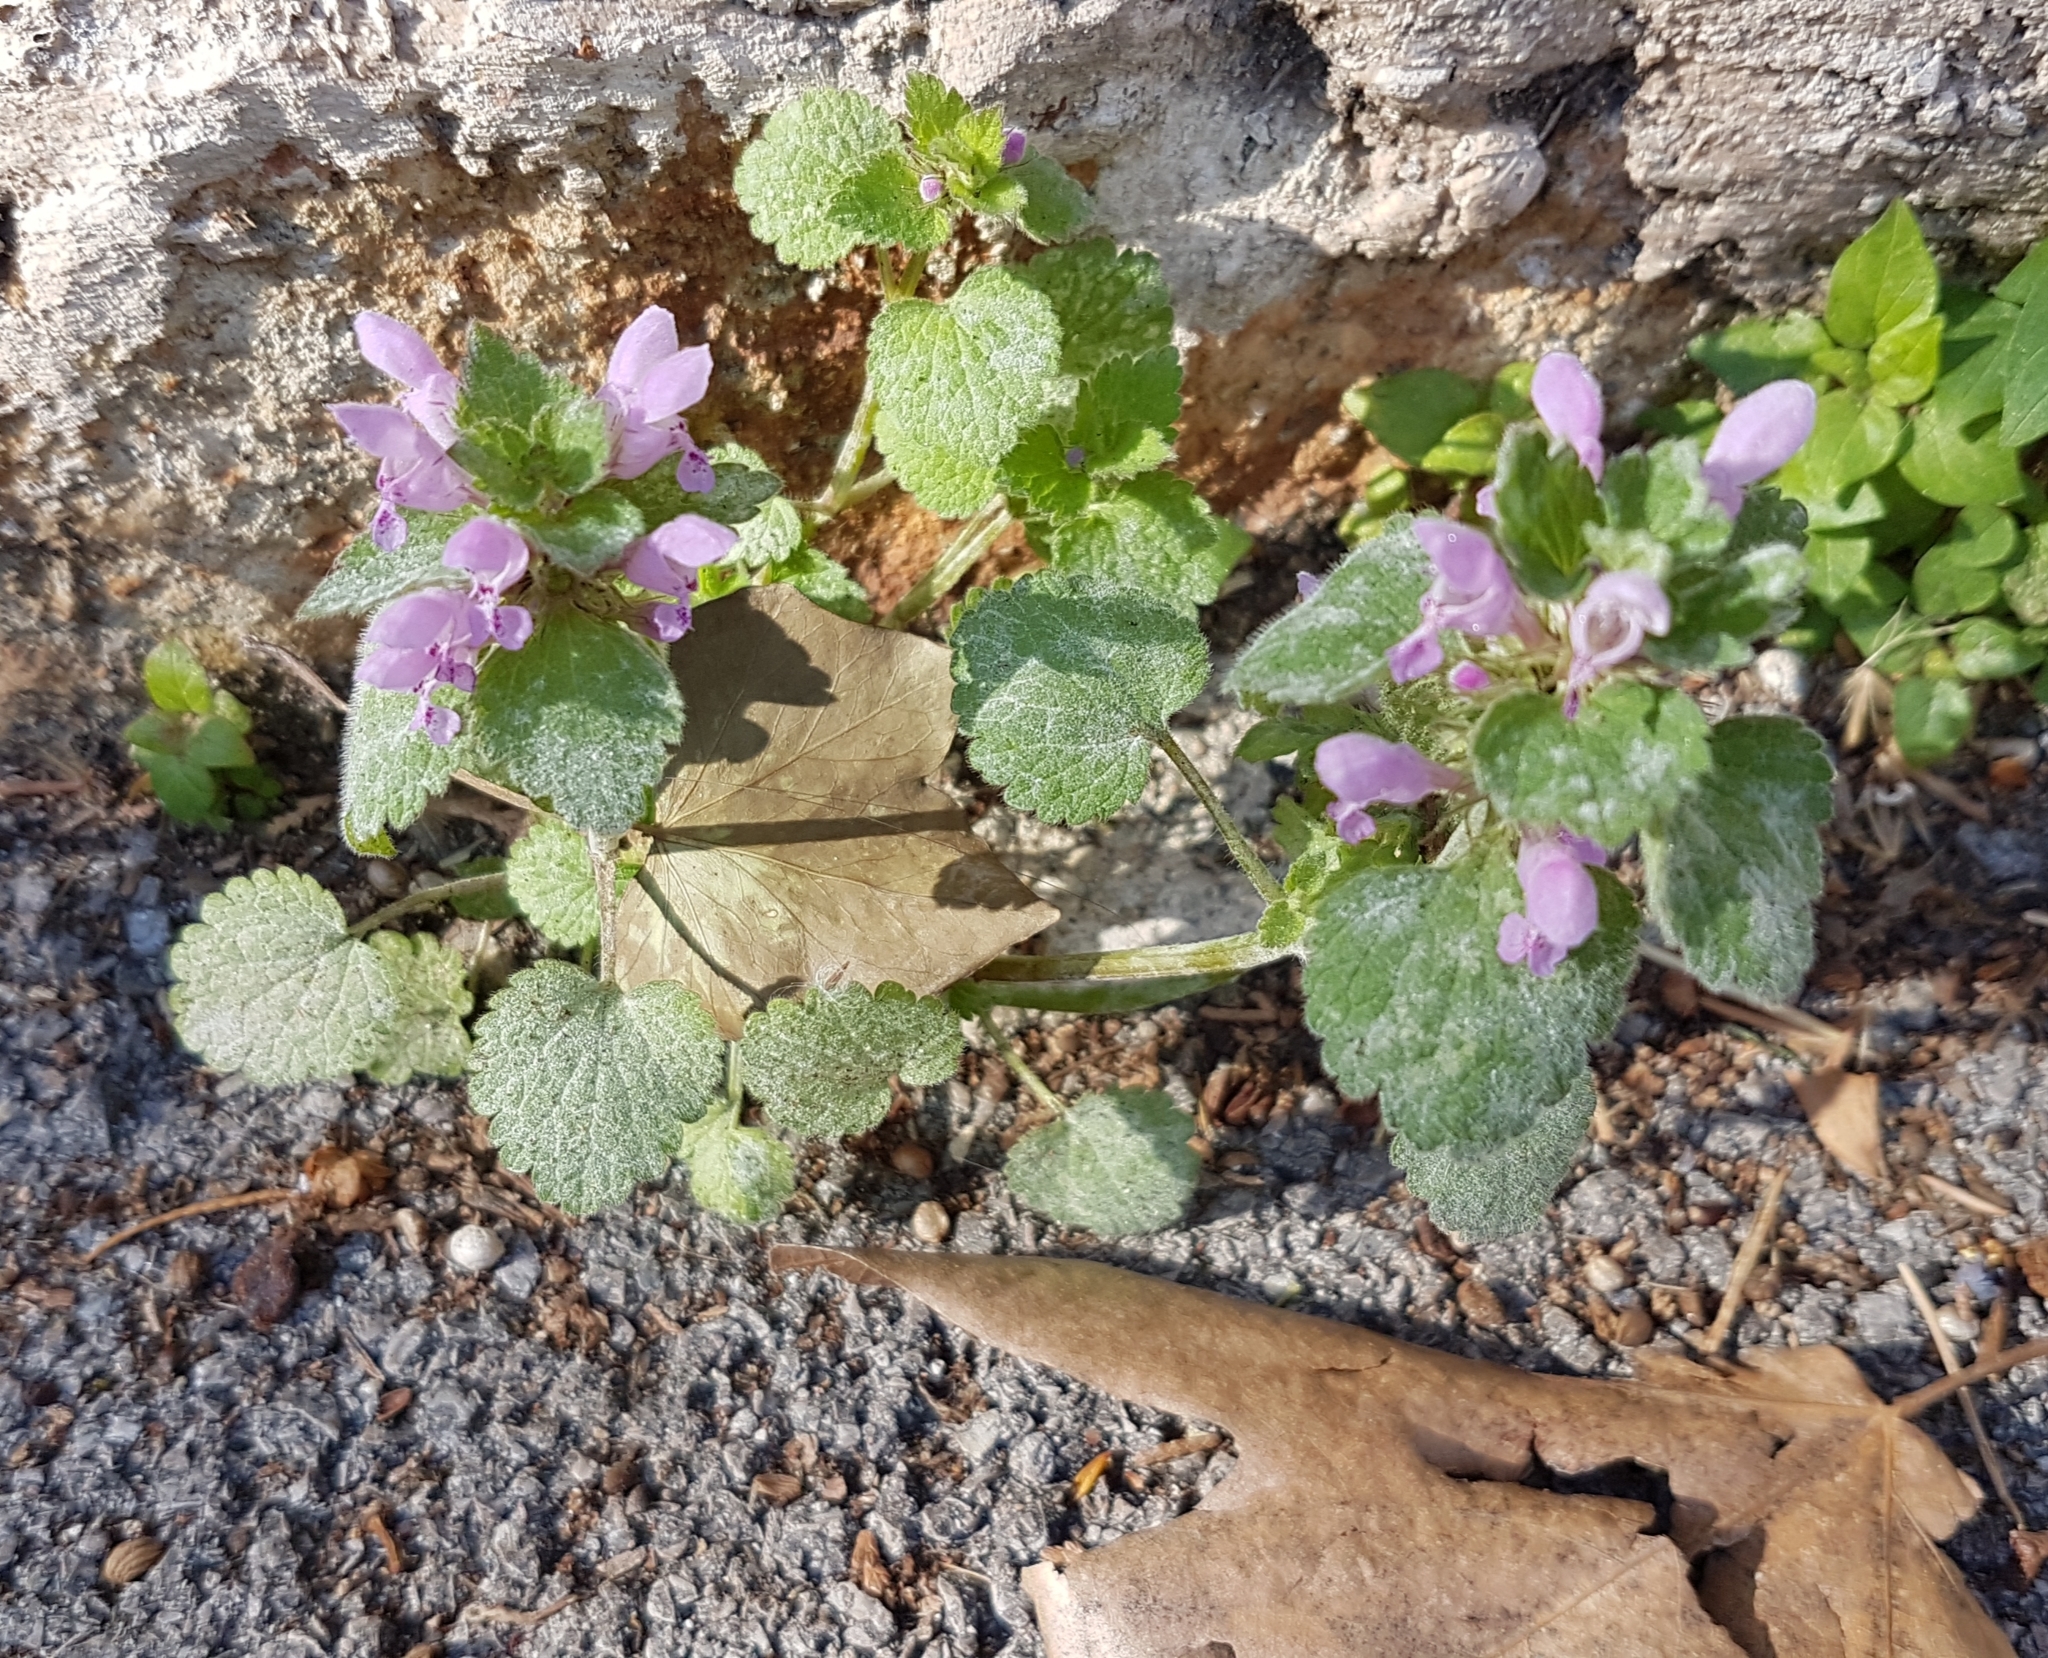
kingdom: Plantae
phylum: Tracheophyta
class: Magnoliopsida
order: Lamiales
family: Lamiaceae
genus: Lamium
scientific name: Lamium purpureum
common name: Red dead-nettle
